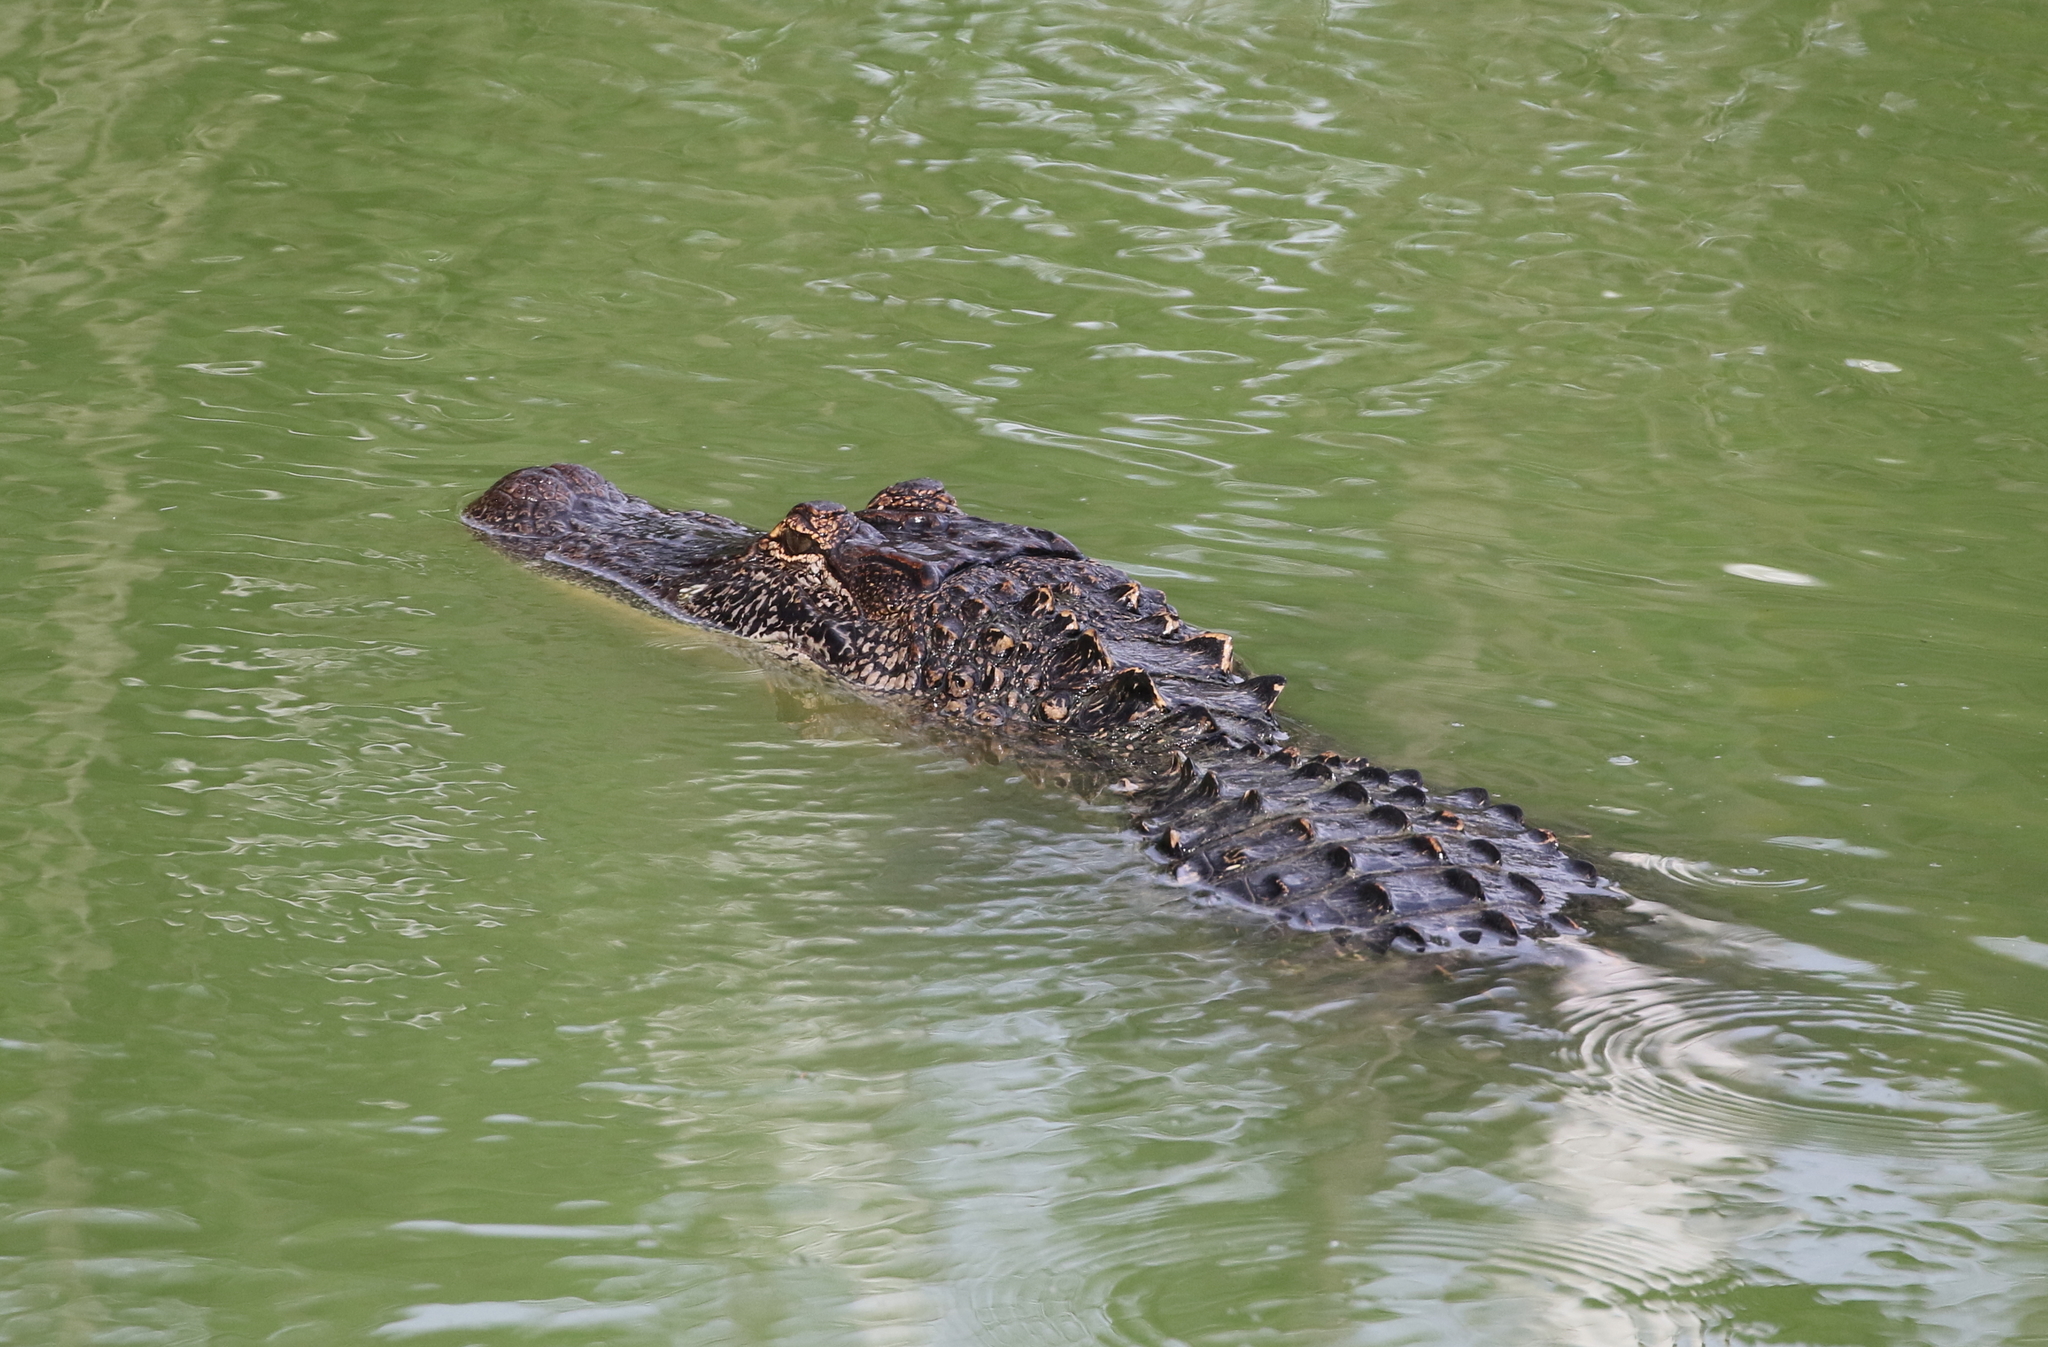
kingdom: Animalia
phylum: Chordata
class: Crocodylia
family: Alligatoridae
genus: Alligator
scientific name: Alligator mississippiensis
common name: American alligator
